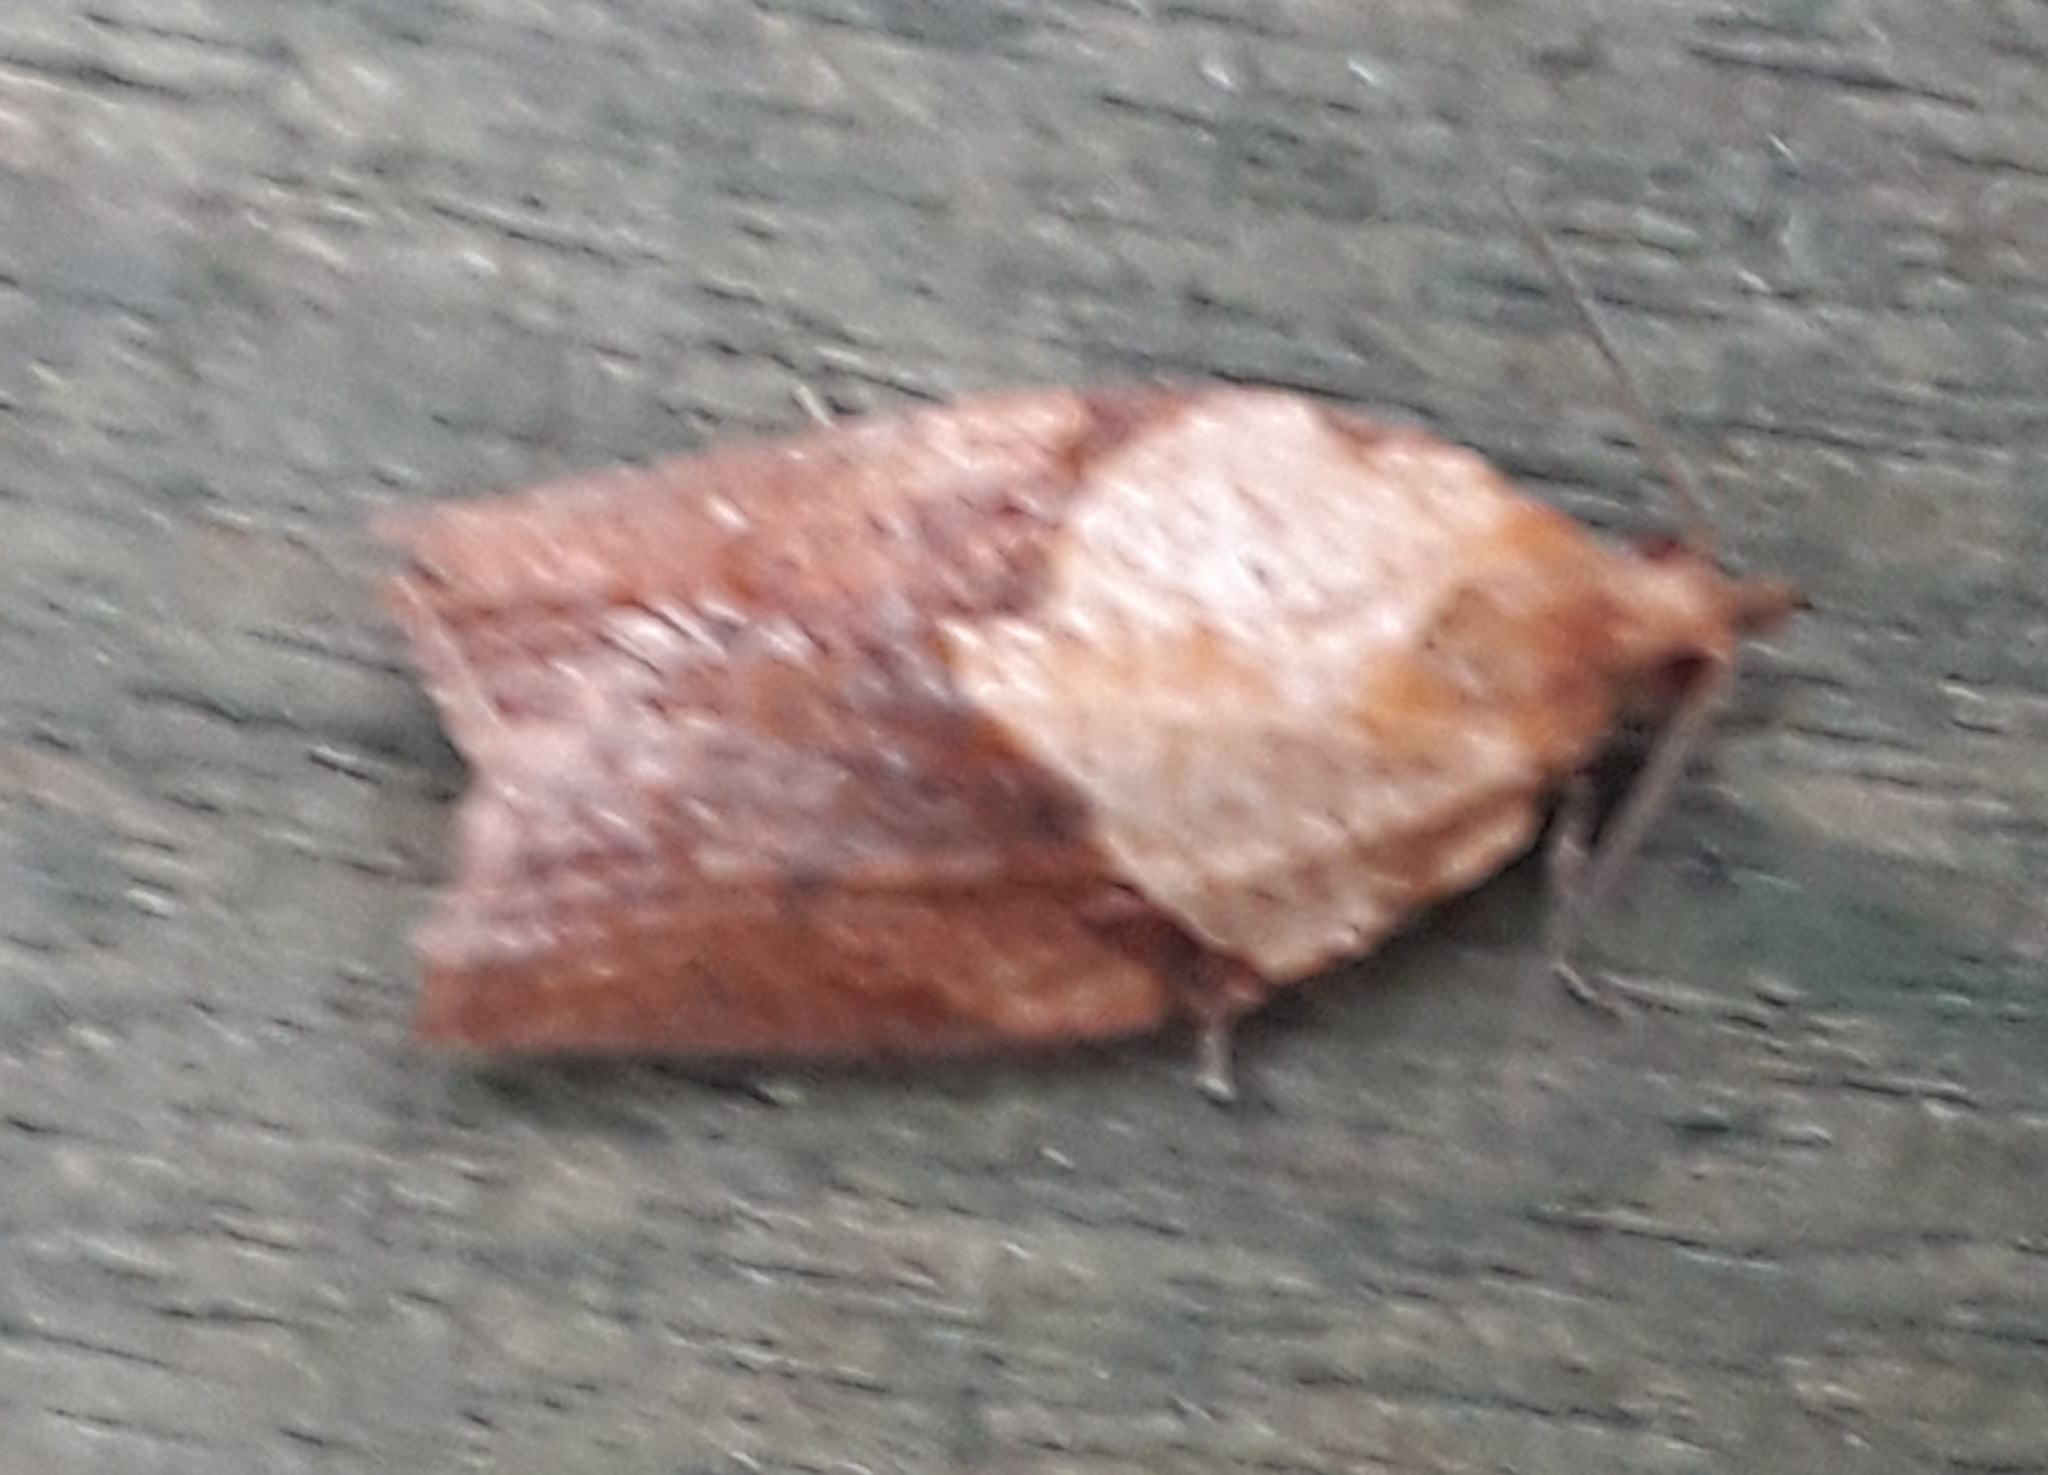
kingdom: Animalia
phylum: Arthropoda
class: Insecta
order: Lepidoptera
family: Tortricidae
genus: Epiphyas
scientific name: Epiphyas postvittana
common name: Light brown apple moth
